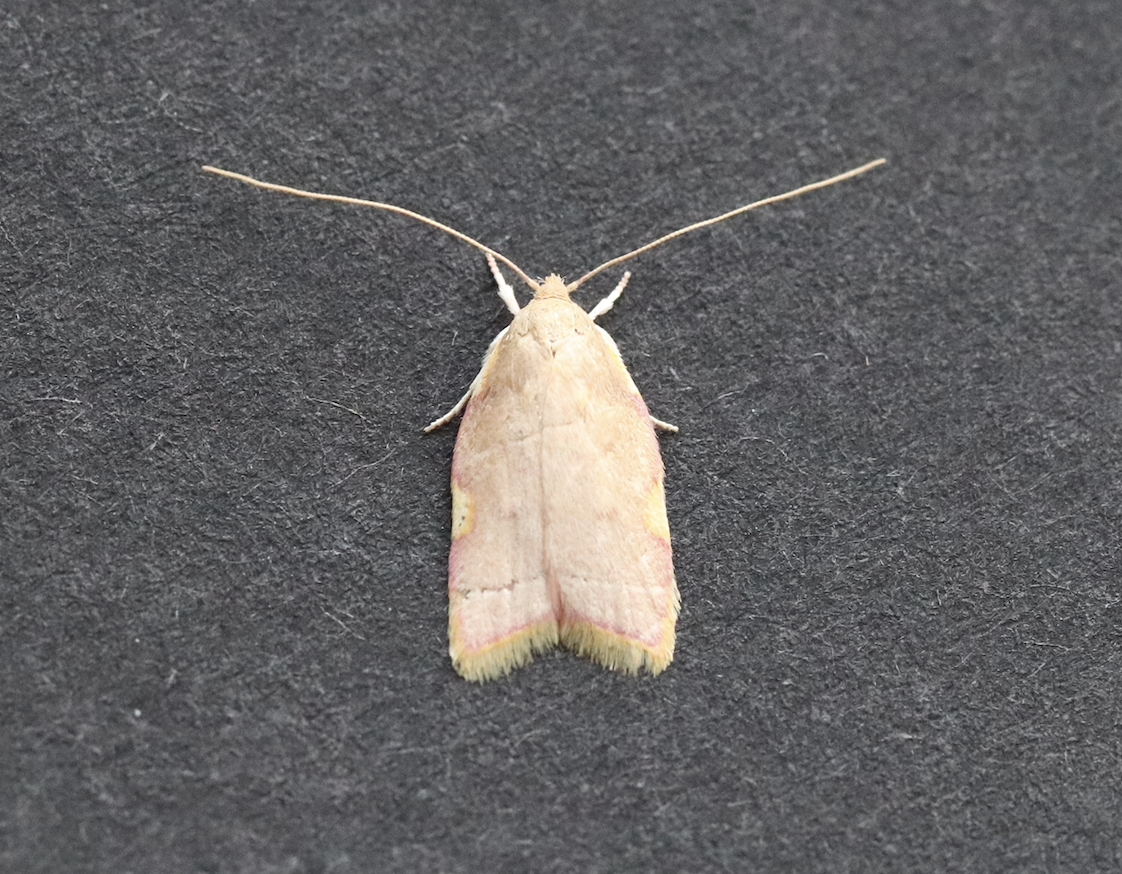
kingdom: Animalia
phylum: Arthropoda
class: Insecta
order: Lepidoptera
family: Peleopodidae
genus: Carcina
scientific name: Carcina quercana
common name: Moth
